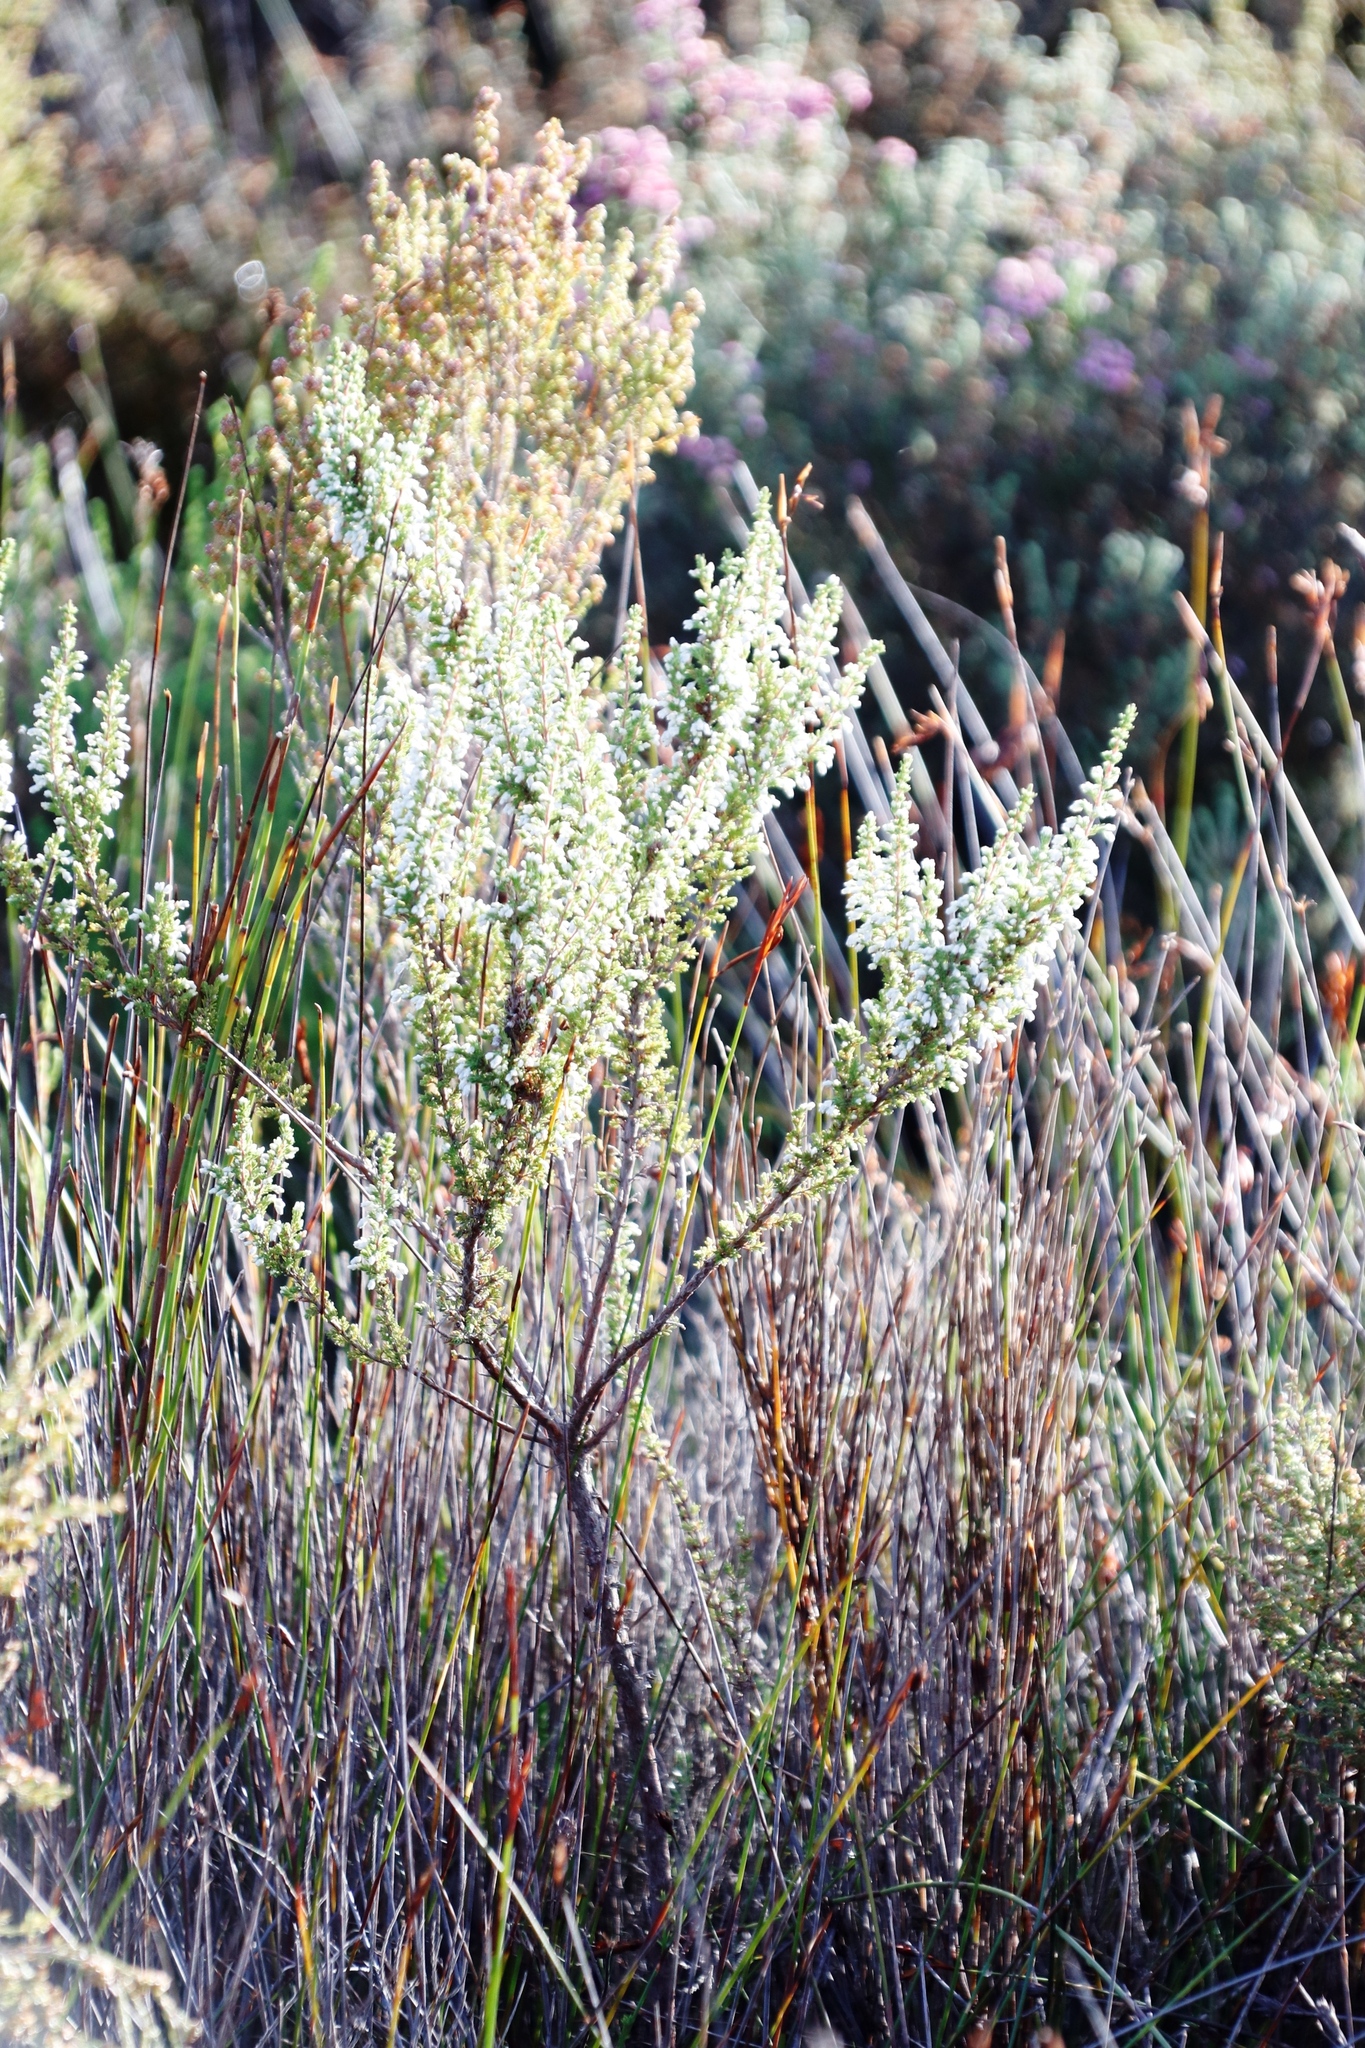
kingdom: Plantae
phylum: Tracheophyta
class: Magnoliopsida
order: Ericales
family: Ericaceae
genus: Erica
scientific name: Erica imbricata
